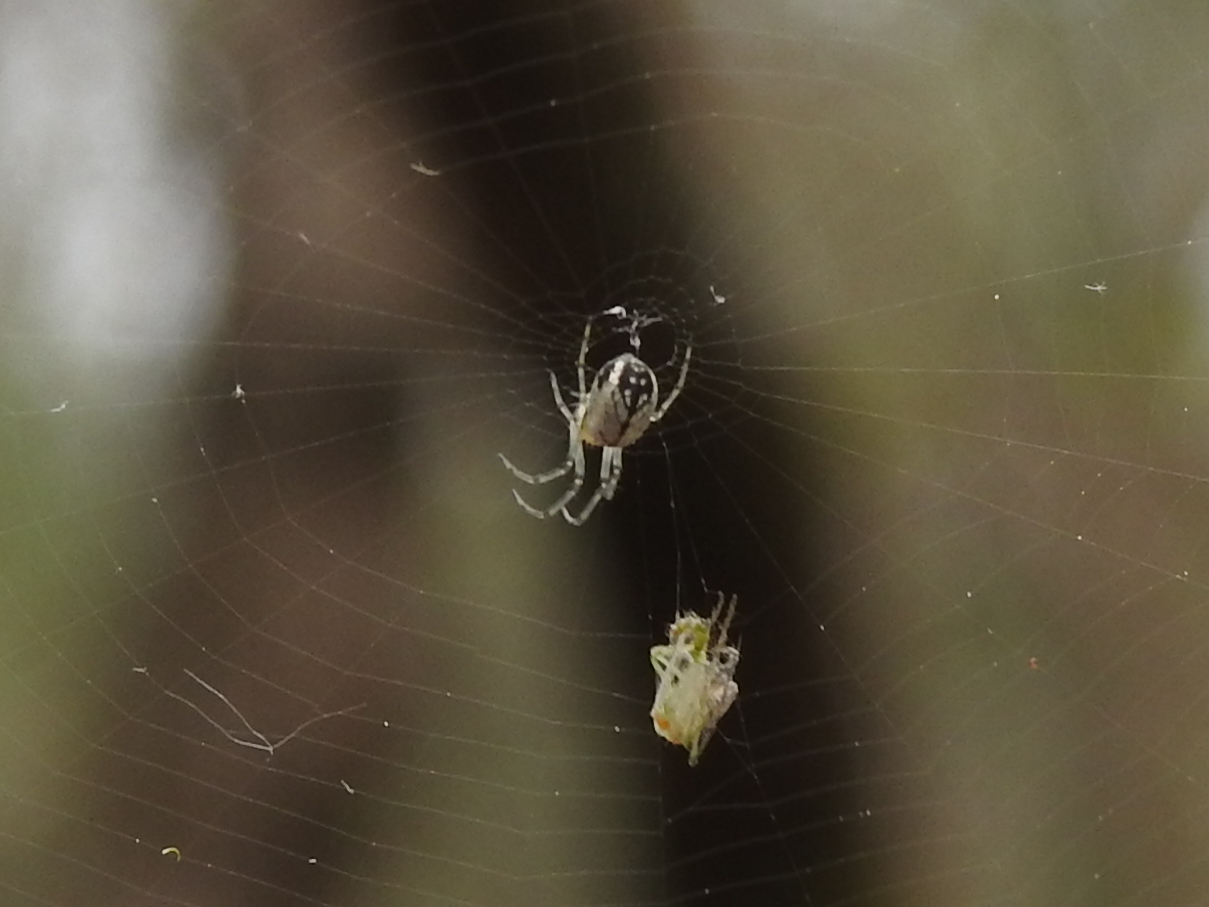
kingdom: Animalia
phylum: Arthropoda
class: Arachnida
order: Araneae
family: Tetragnathidae
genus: Leucauge
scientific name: Leucauge venusta
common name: Longjawed orb weavers
